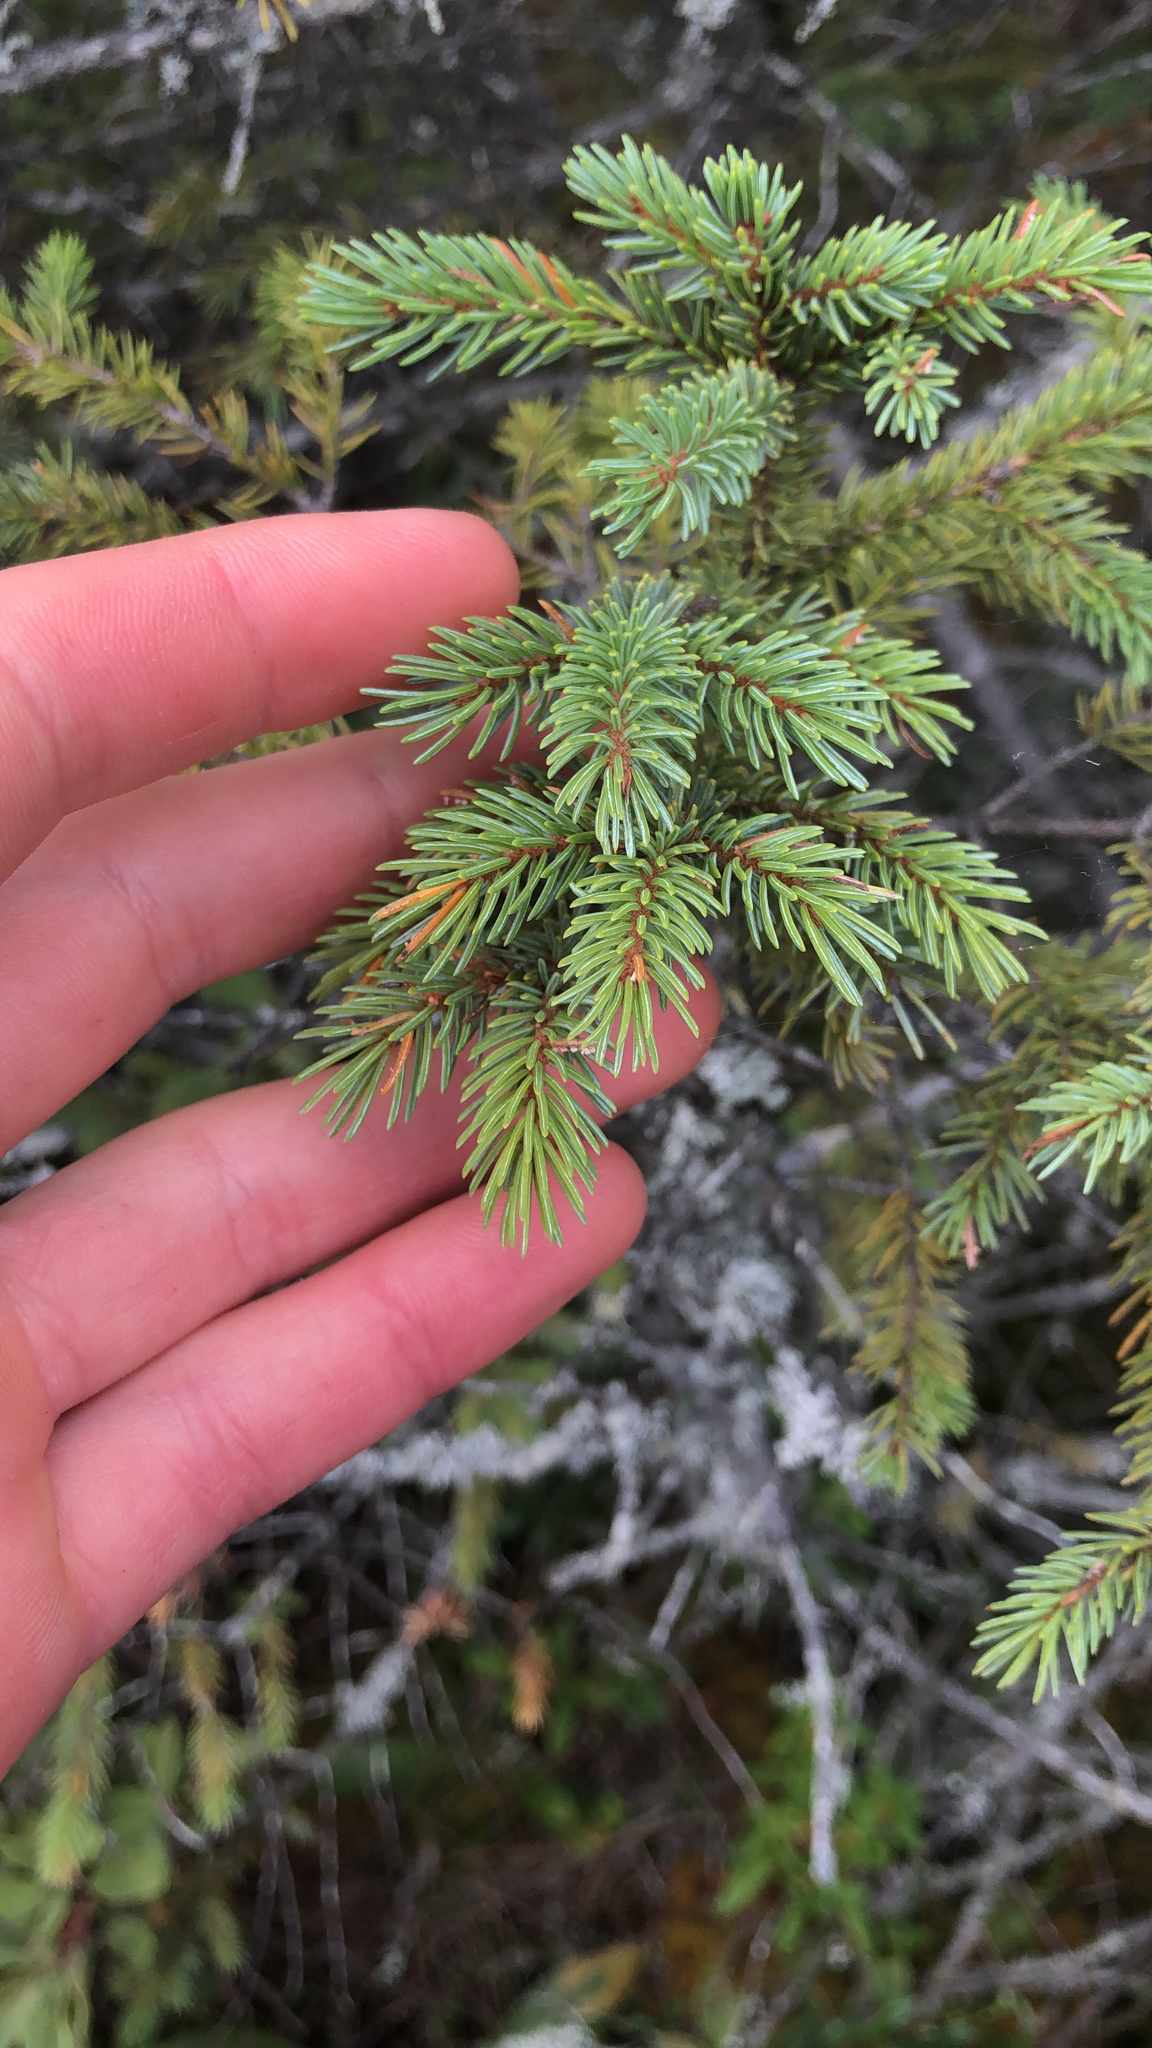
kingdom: Plantae
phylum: Tracheophyta
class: Pinopsida
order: Pinales
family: Pinaceae
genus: Picea
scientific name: Picea mariana
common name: Black spruce
